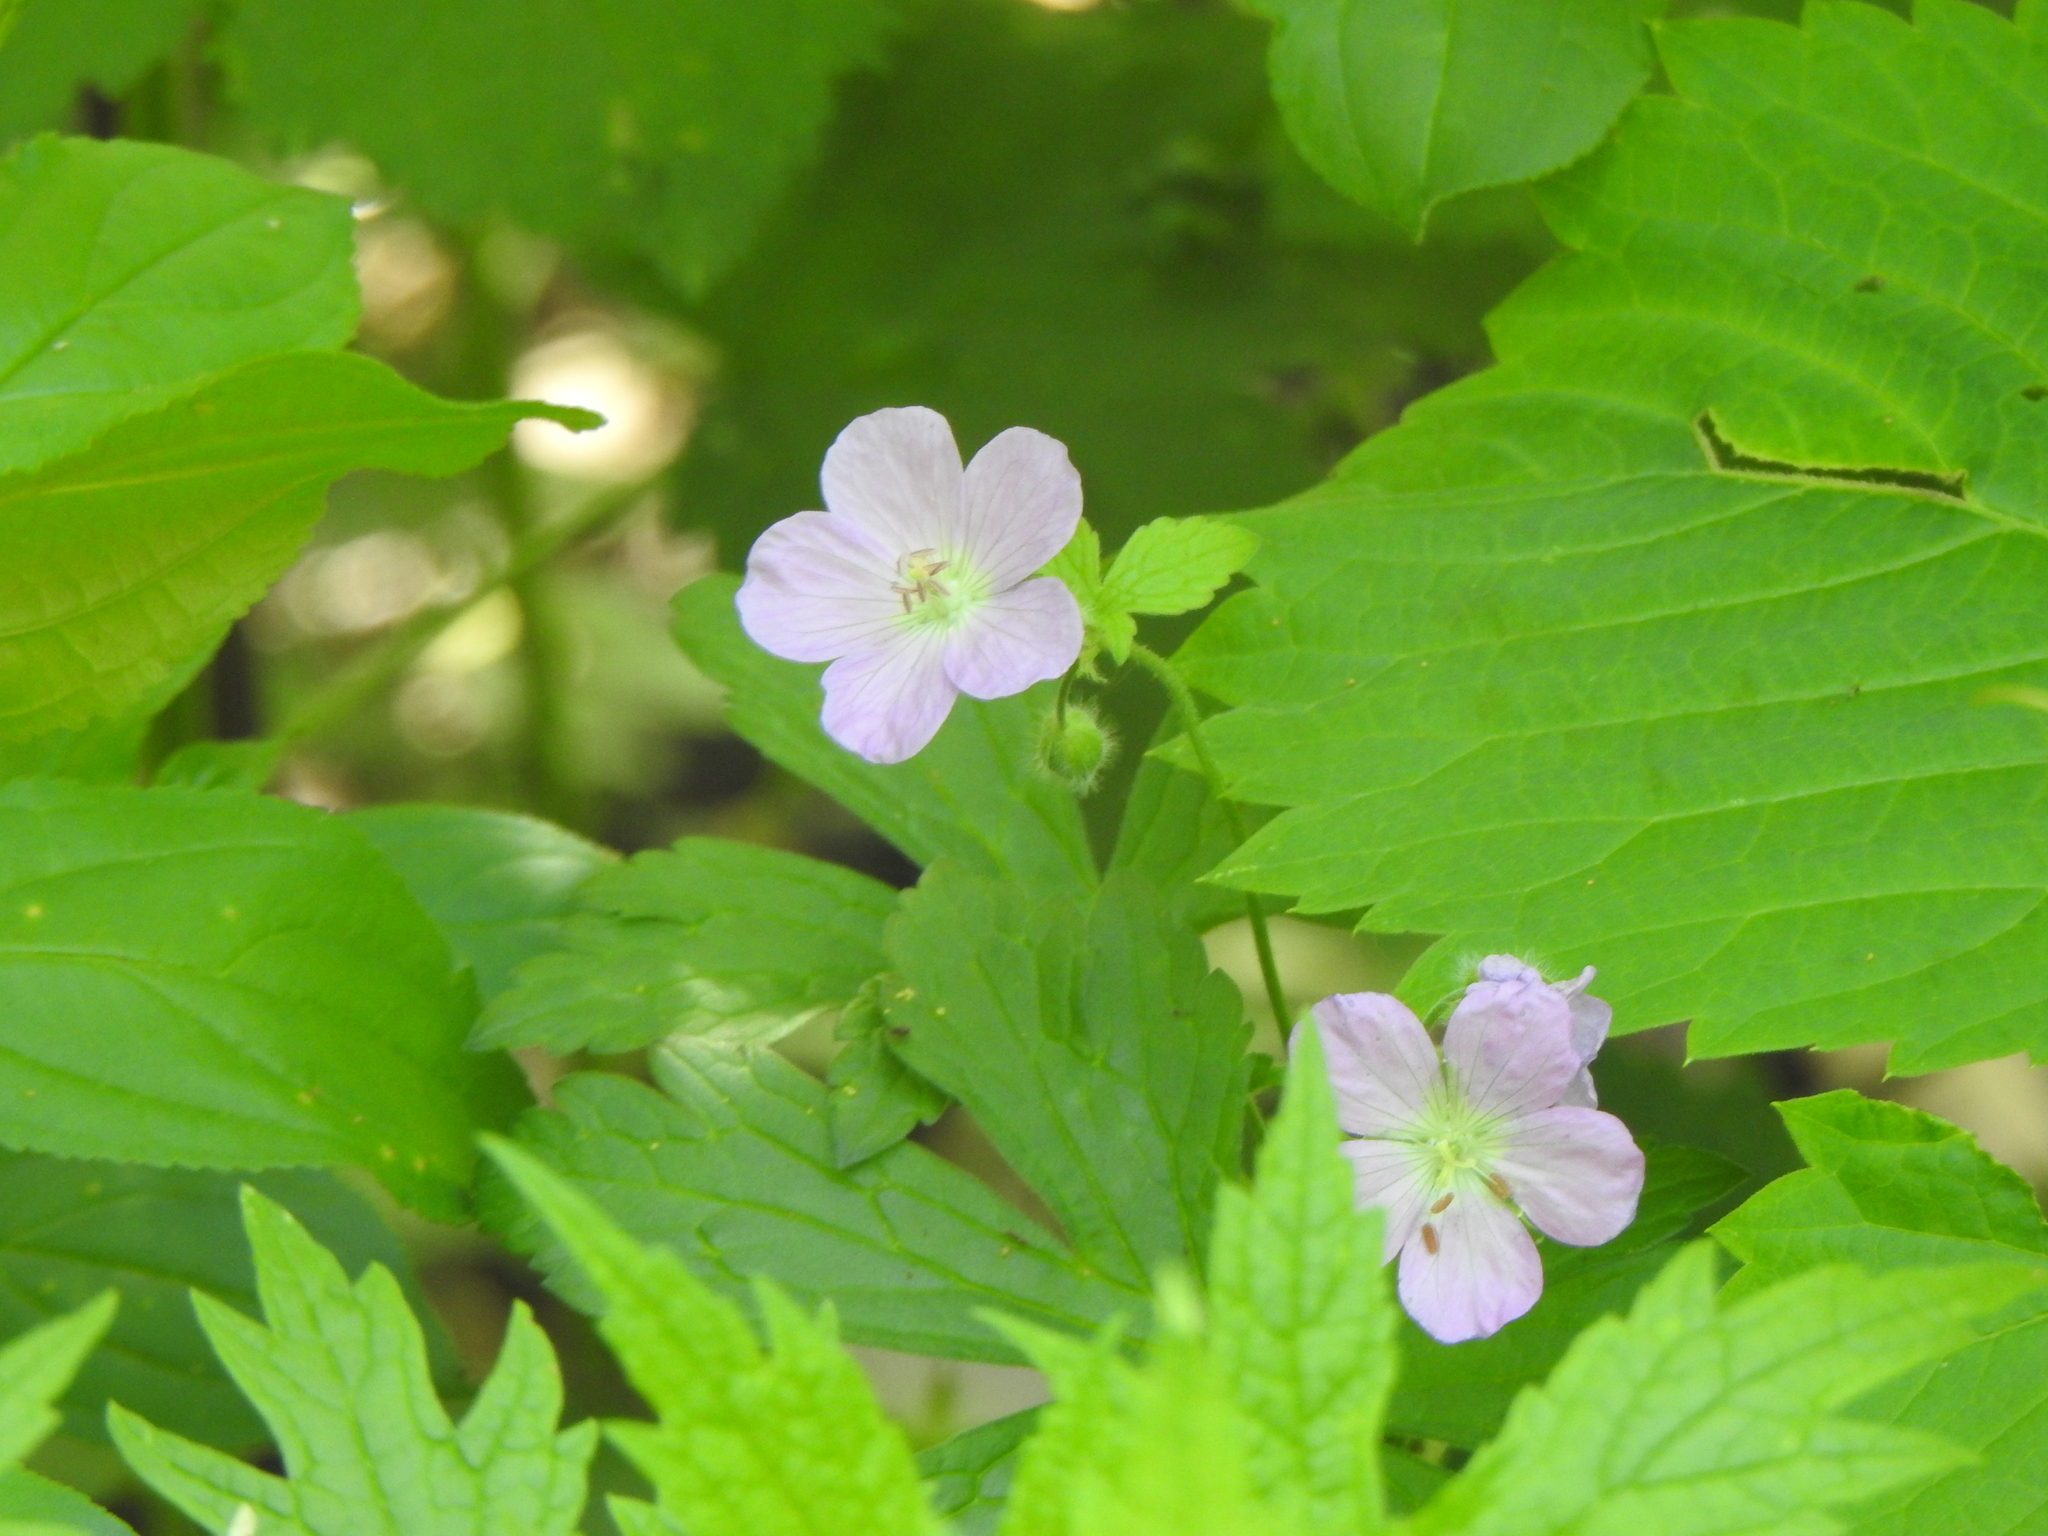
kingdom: Plantae
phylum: Tracheophyta
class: Magnoliopsida
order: Geraniales
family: Geraniaceae
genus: Geranium
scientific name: Geranium maculatum
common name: Spotted geranium
